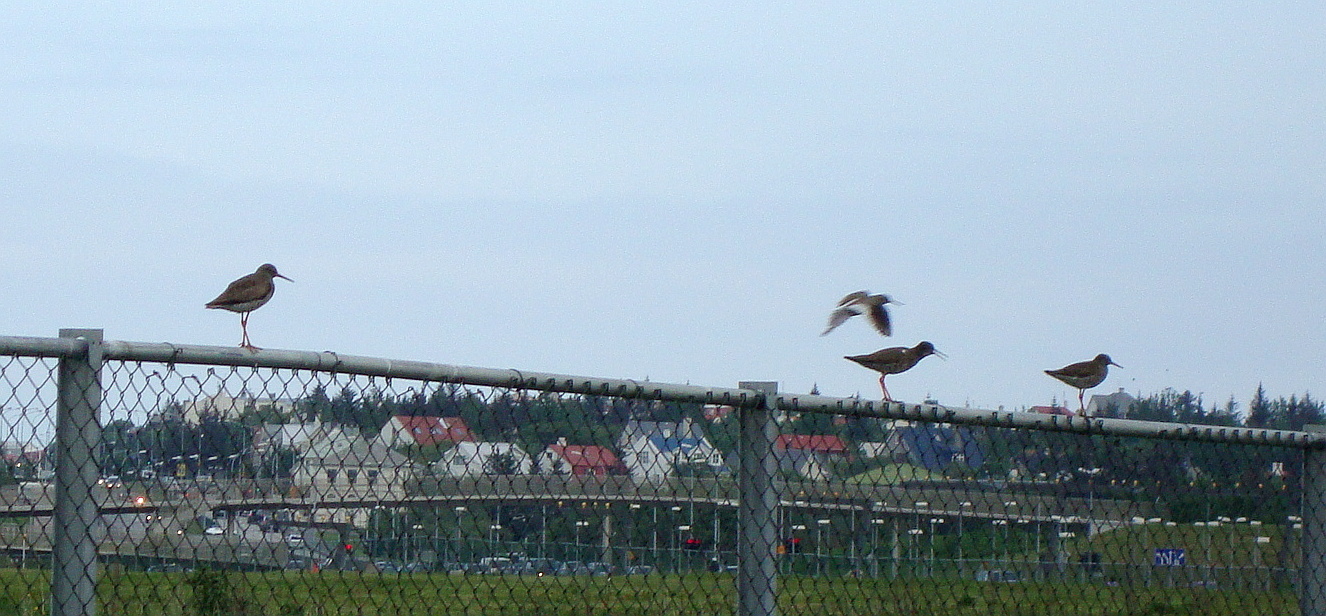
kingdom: Animalia
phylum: Chordata
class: Aves
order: Charadriiformes
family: Scolopacidae
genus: Tringa
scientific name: Tringa totanus
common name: Common redshank
